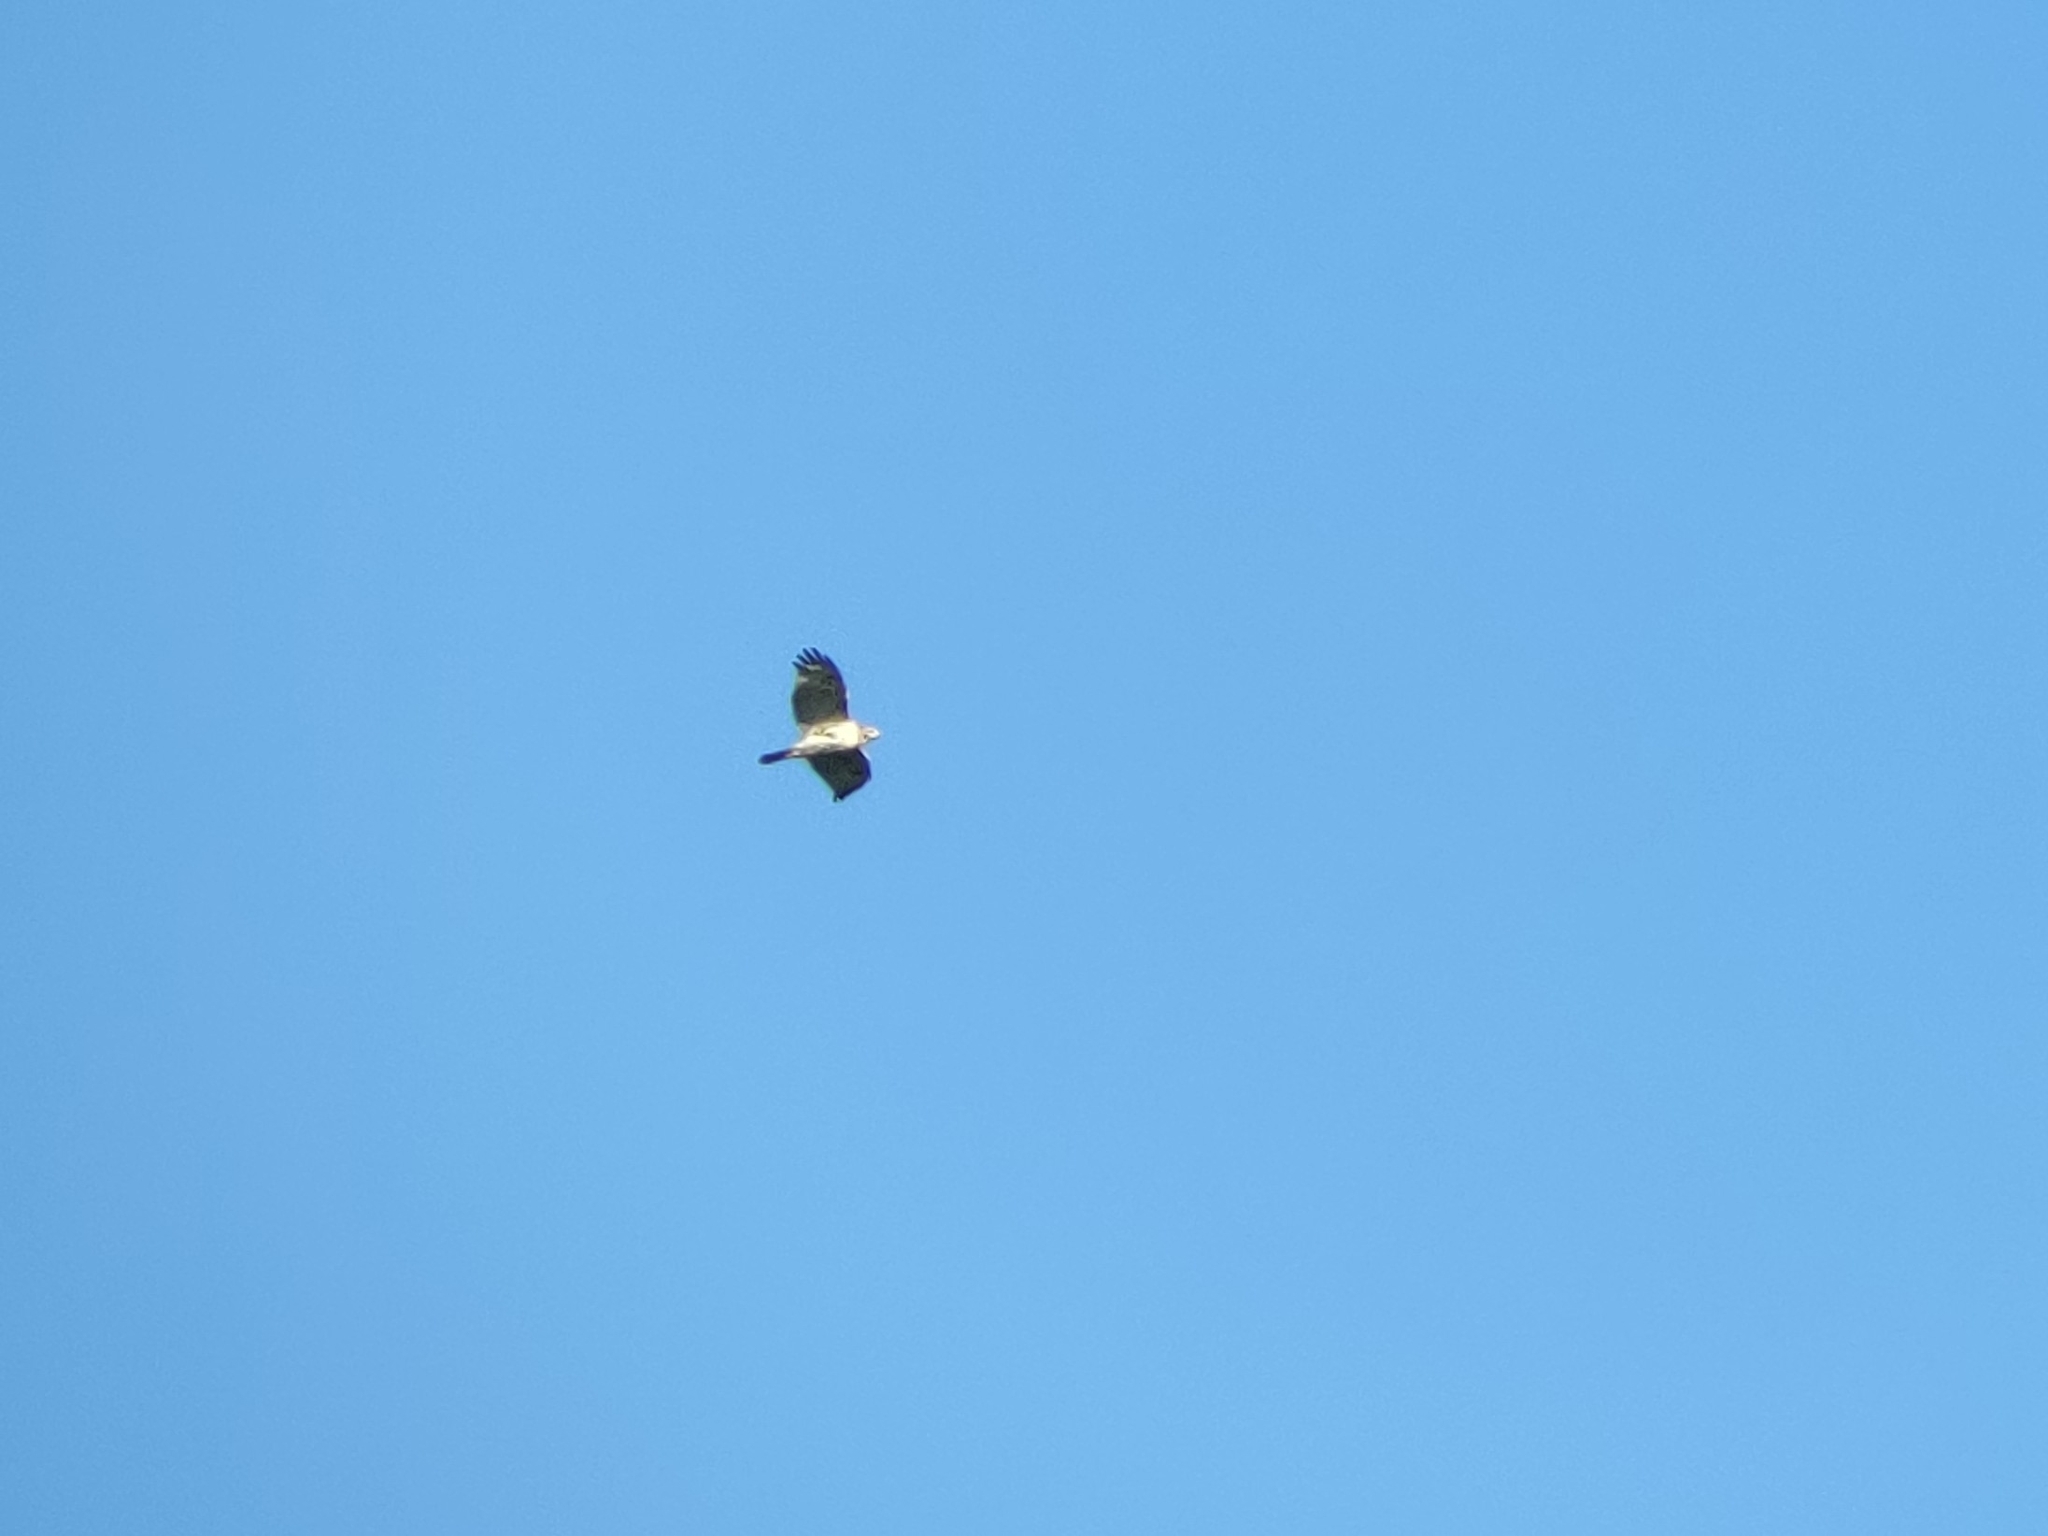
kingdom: Animalia
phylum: Chordata
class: Aves
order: Accipitriformes
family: Accipitridae
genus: Buteo
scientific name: Buteo jamaicensis
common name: Red-tailed hawk
